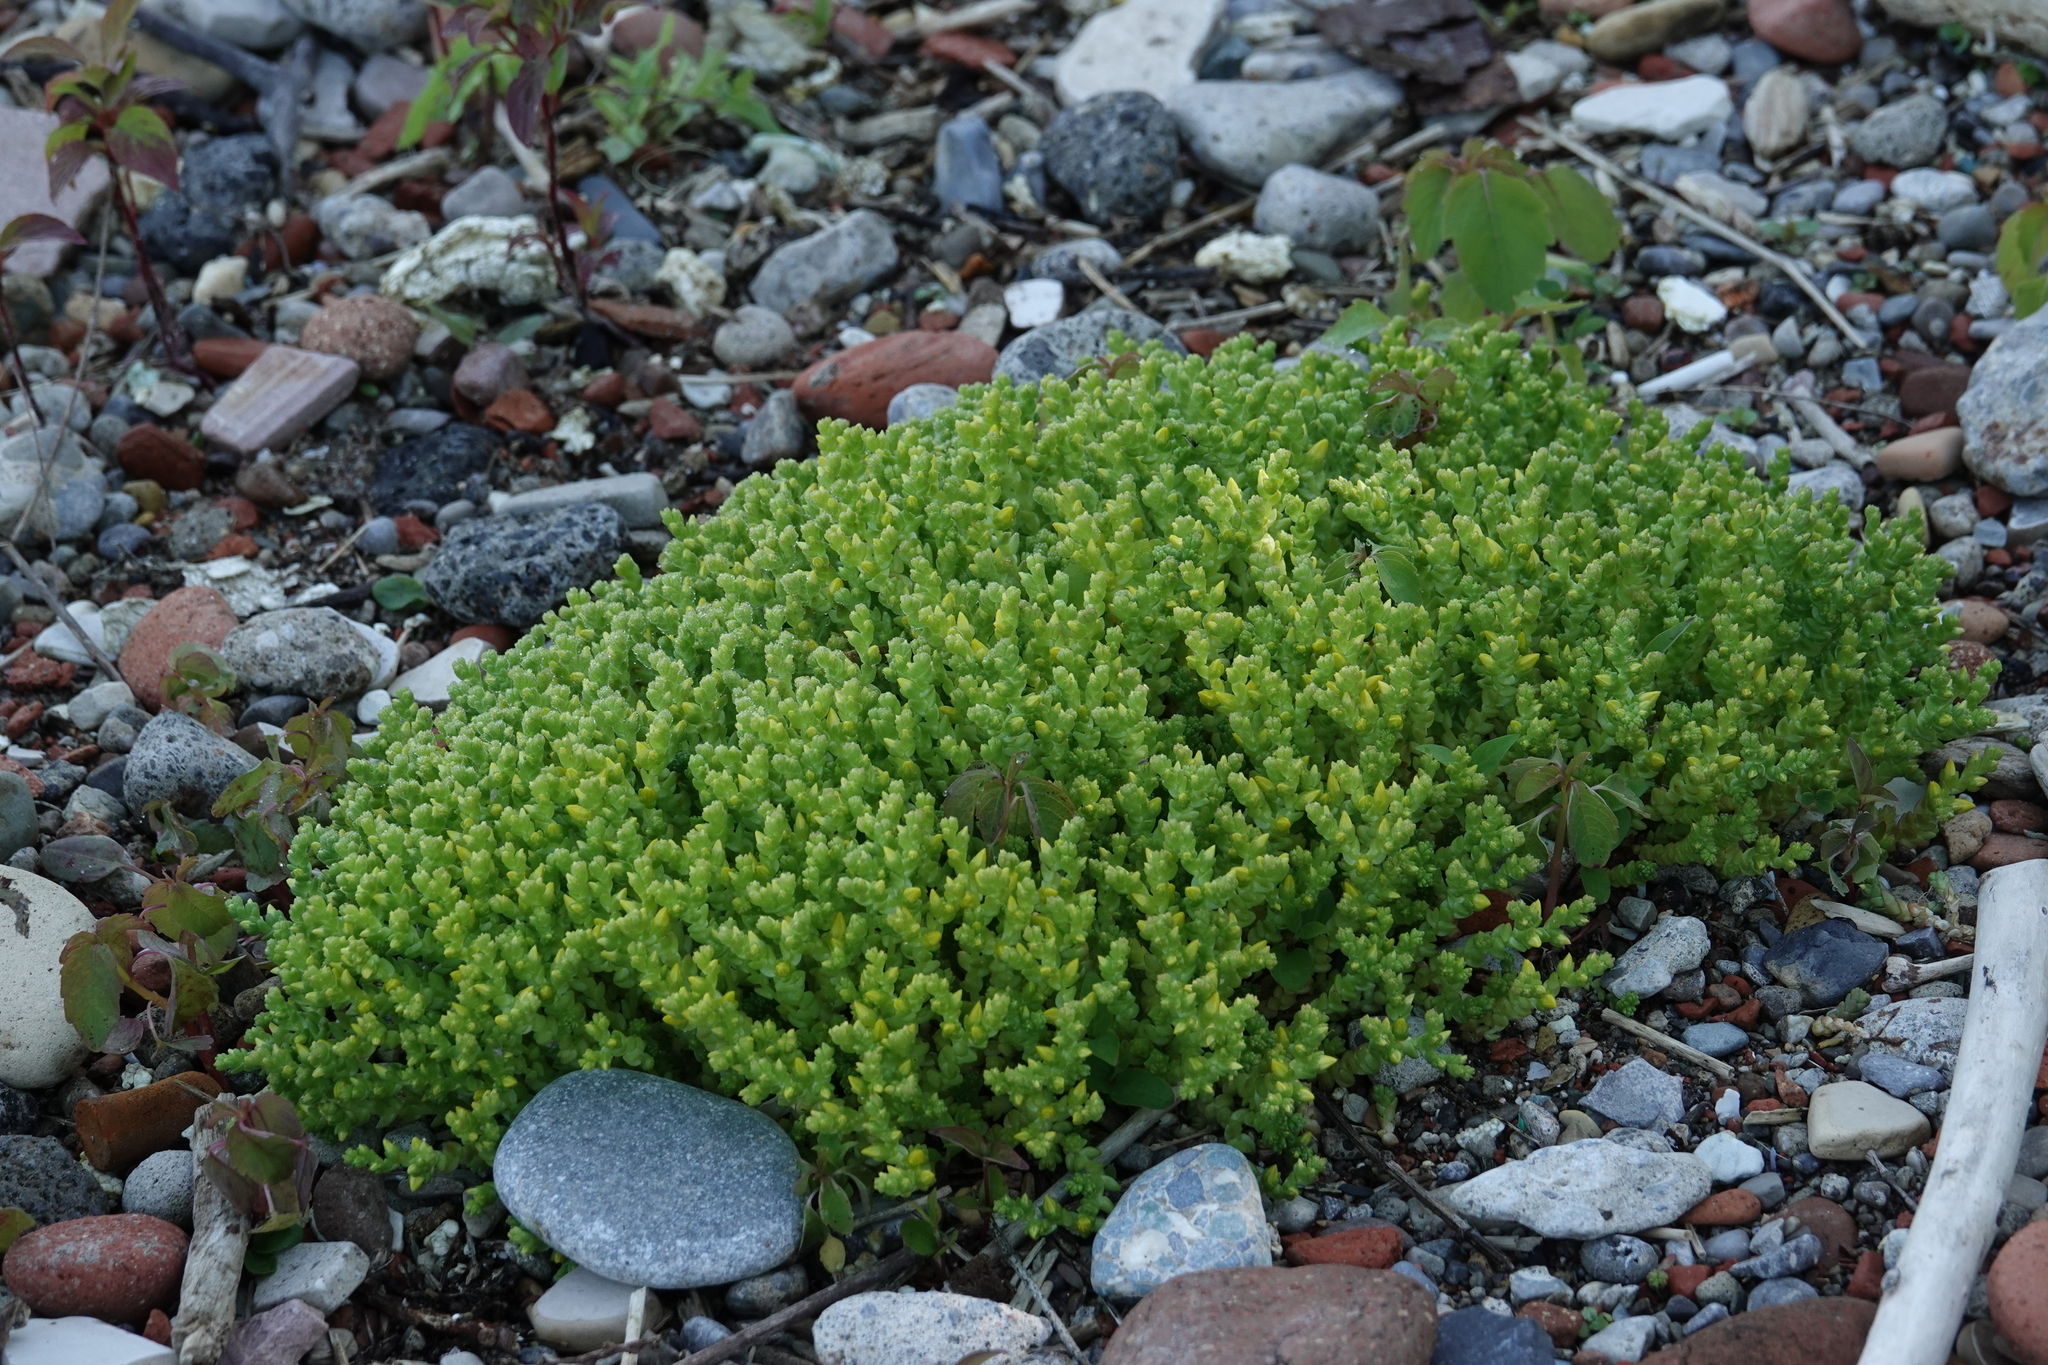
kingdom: Plantae
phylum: Tracheophyta
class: Magnoliopsida
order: Saxifragales
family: Crassulaceae
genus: Sedum
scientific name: Sedum acre
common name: Biting stonecrop
